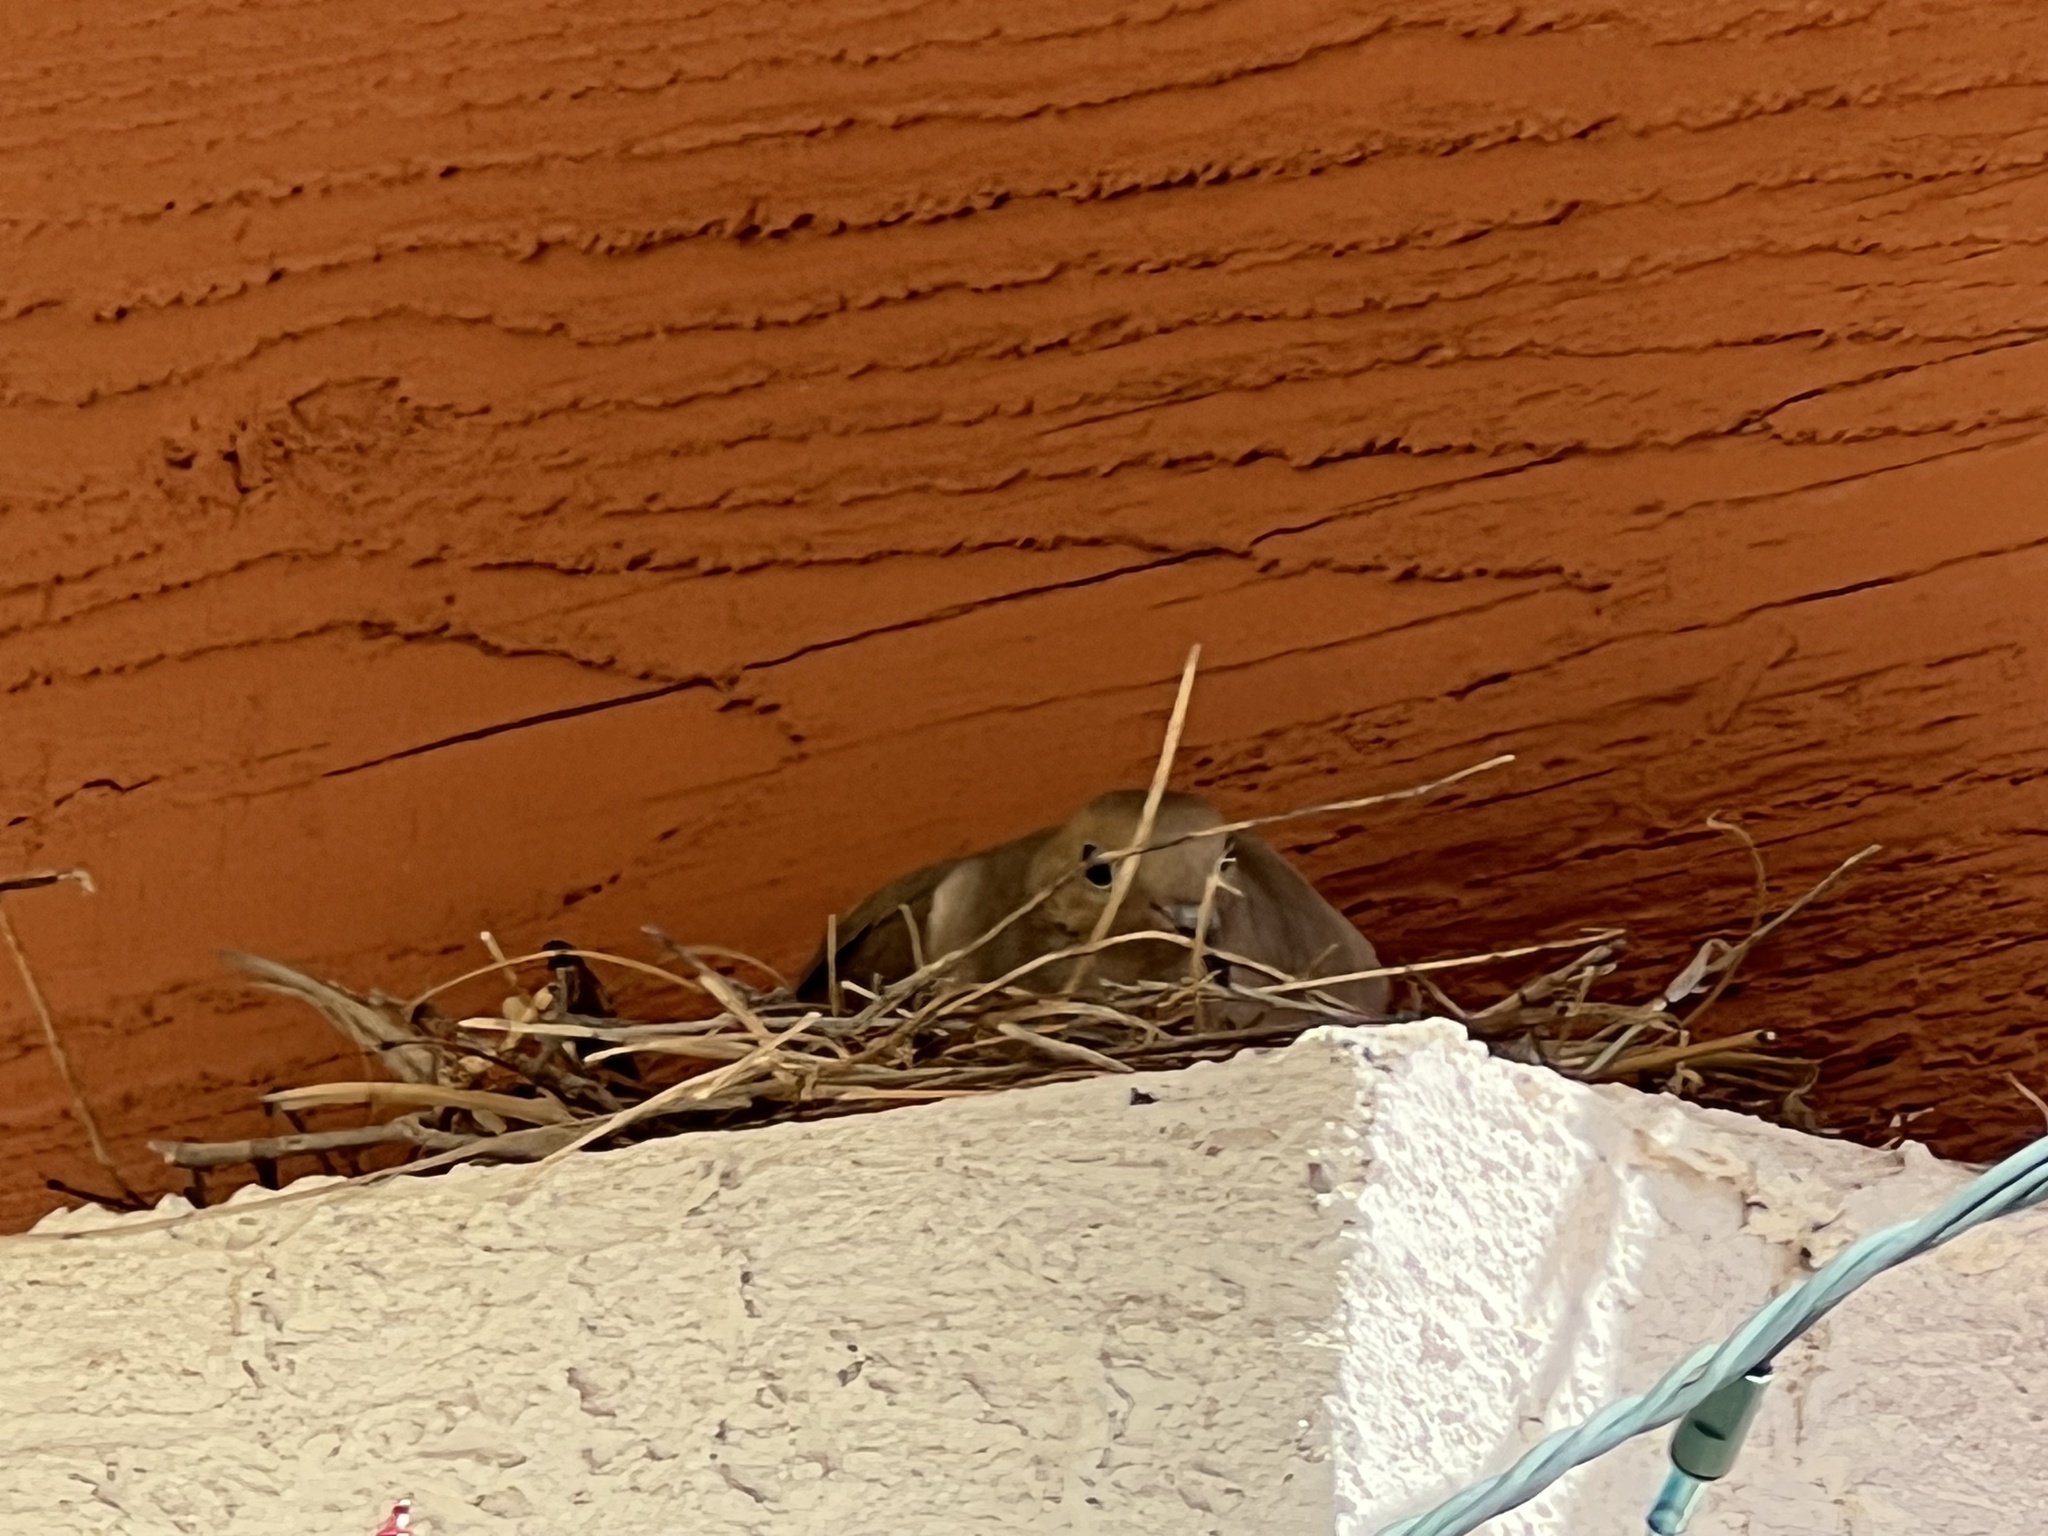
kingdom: Animalia
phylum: Chordata
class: Aves
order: Columbiformes
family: Columbidae
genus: Zenaida
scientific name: Zenaida macroura
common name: Mourning dove
